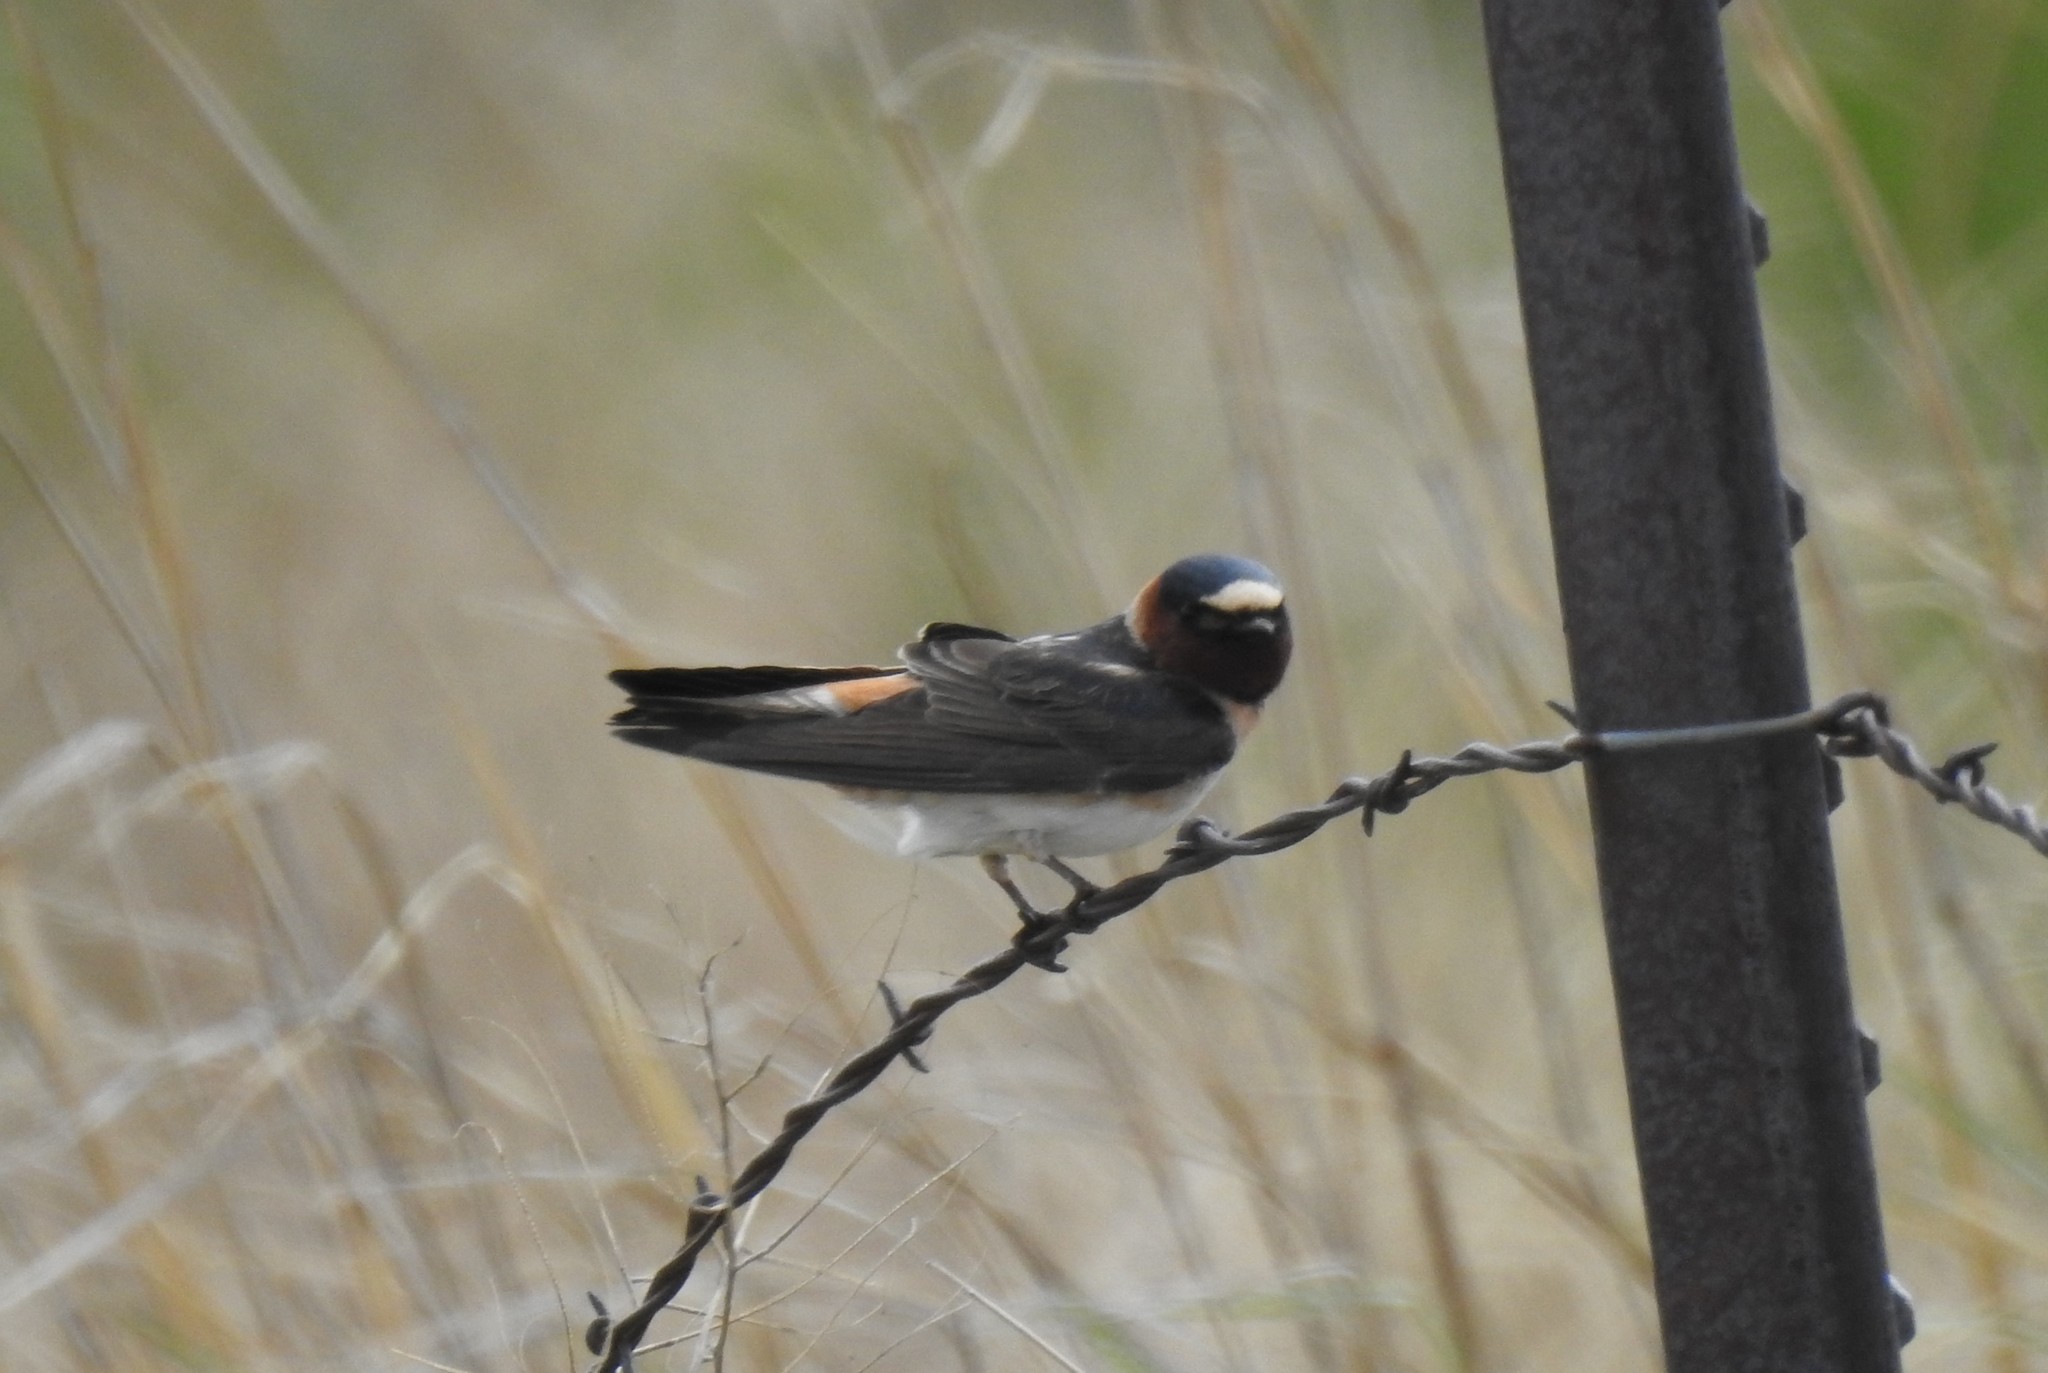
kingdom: Animalia
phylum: Chordata
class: Aves
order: Passeriformes
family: Hirundinidae
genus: Petrochelidon
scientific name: Petrochelidon pyrrhonota
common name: American cliff swallow
